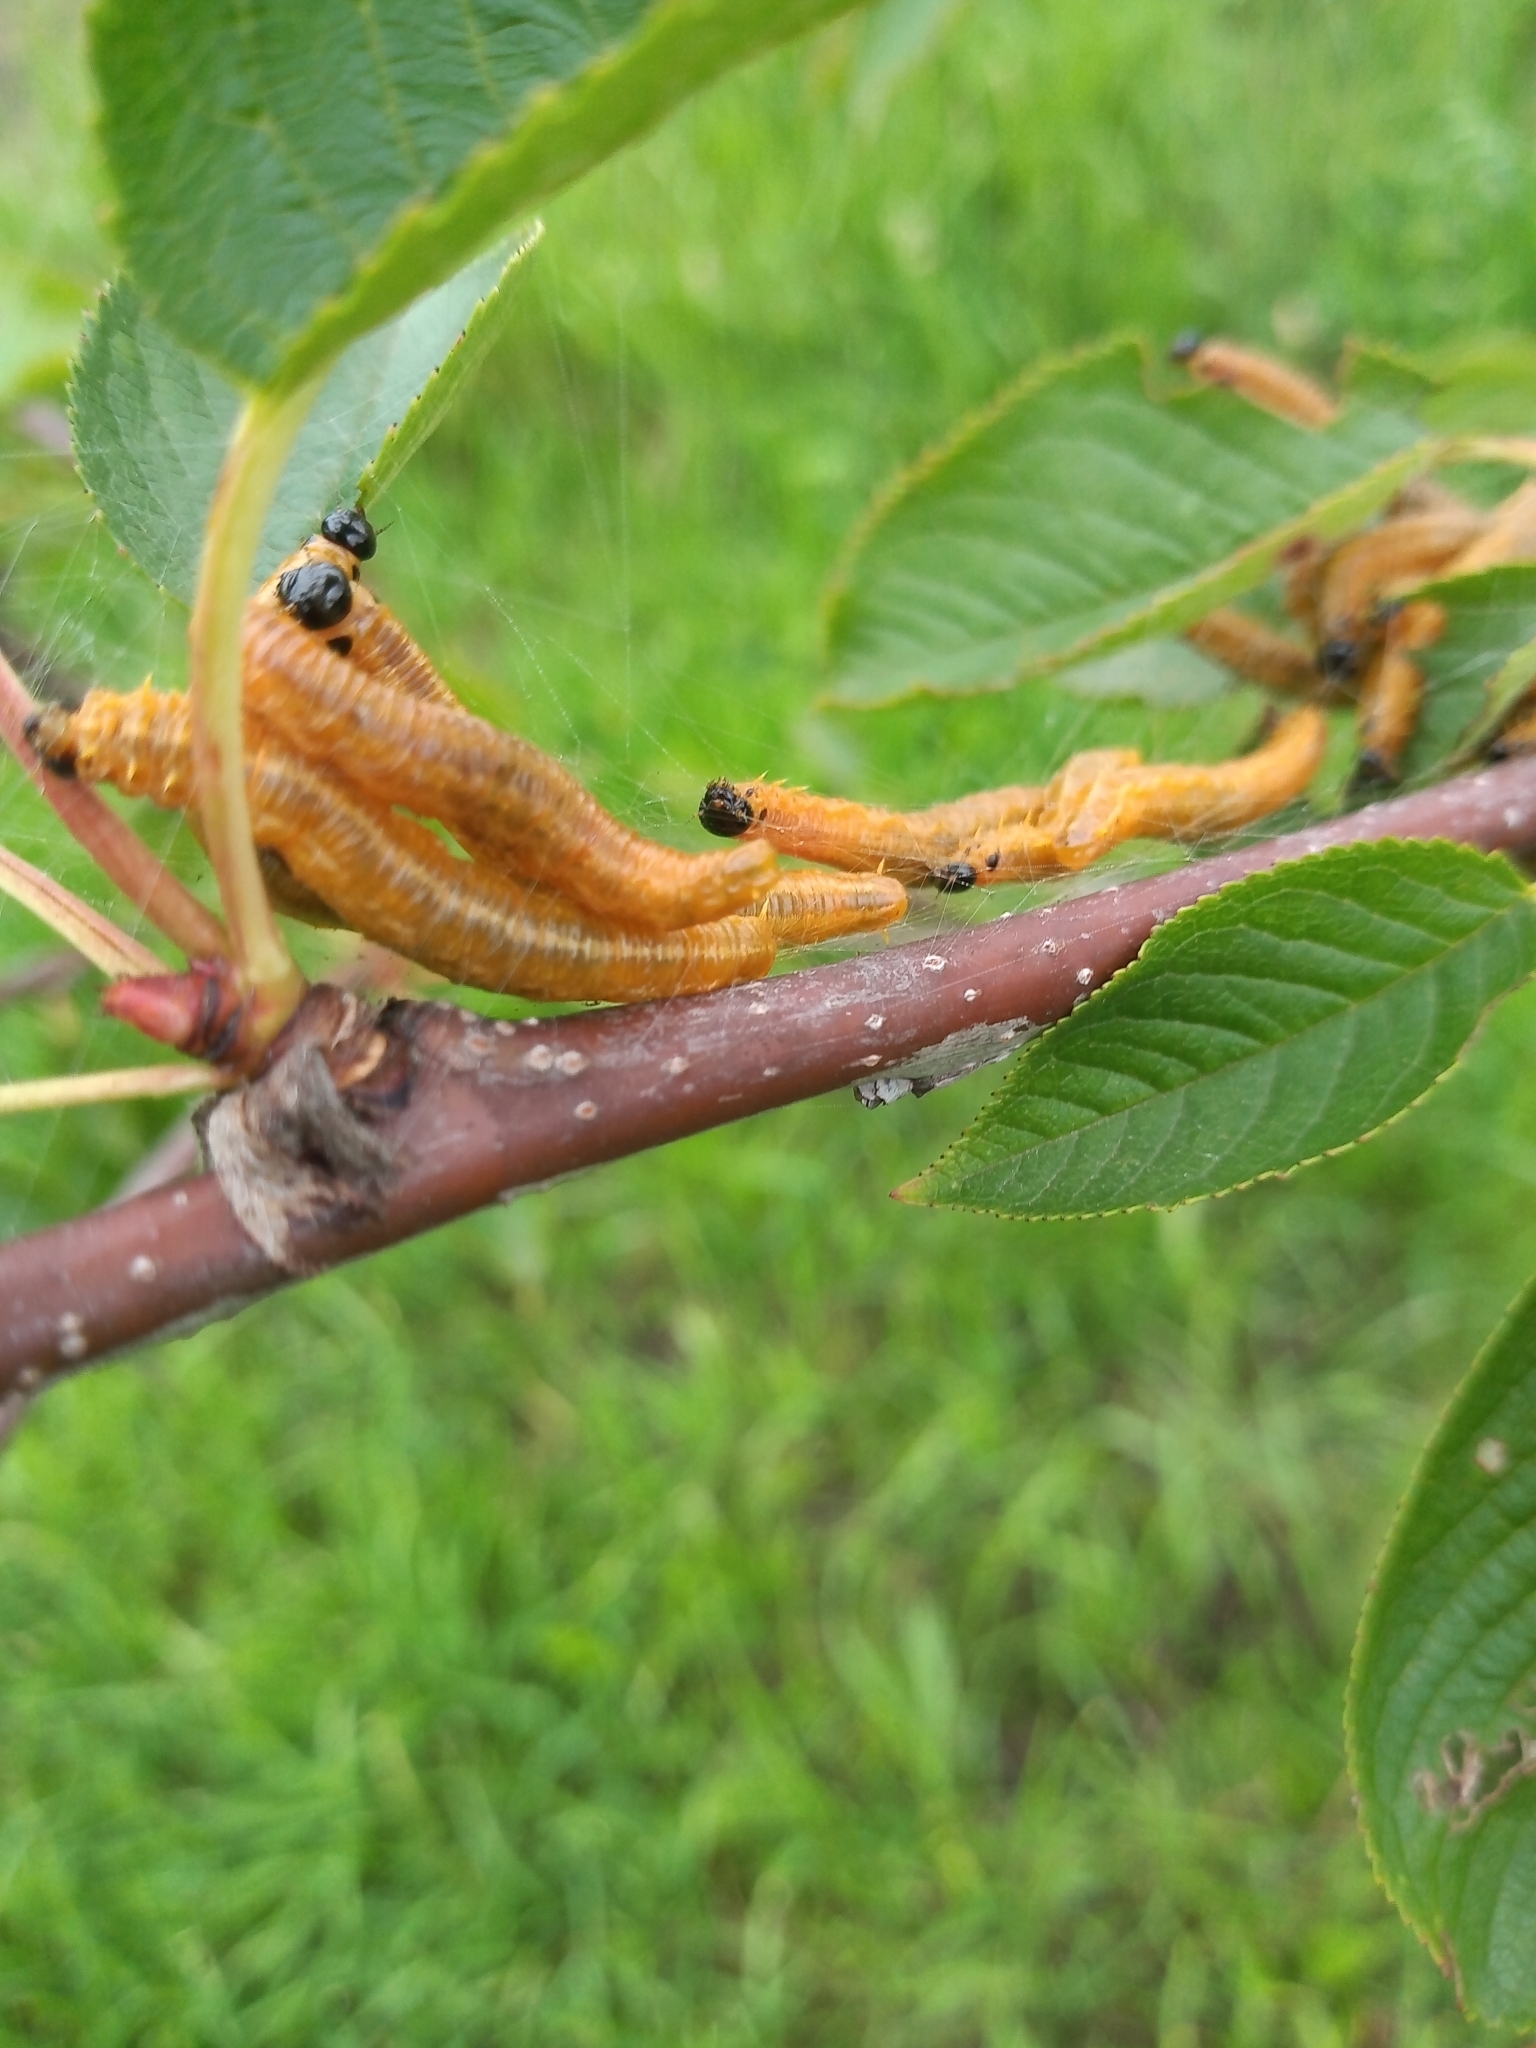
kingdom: Animalia
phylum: Arthropoda
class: Insecta
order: Hymenoptera
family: Pamphiliidae
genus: Neurotoma
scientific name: Neurotoma saltuum
